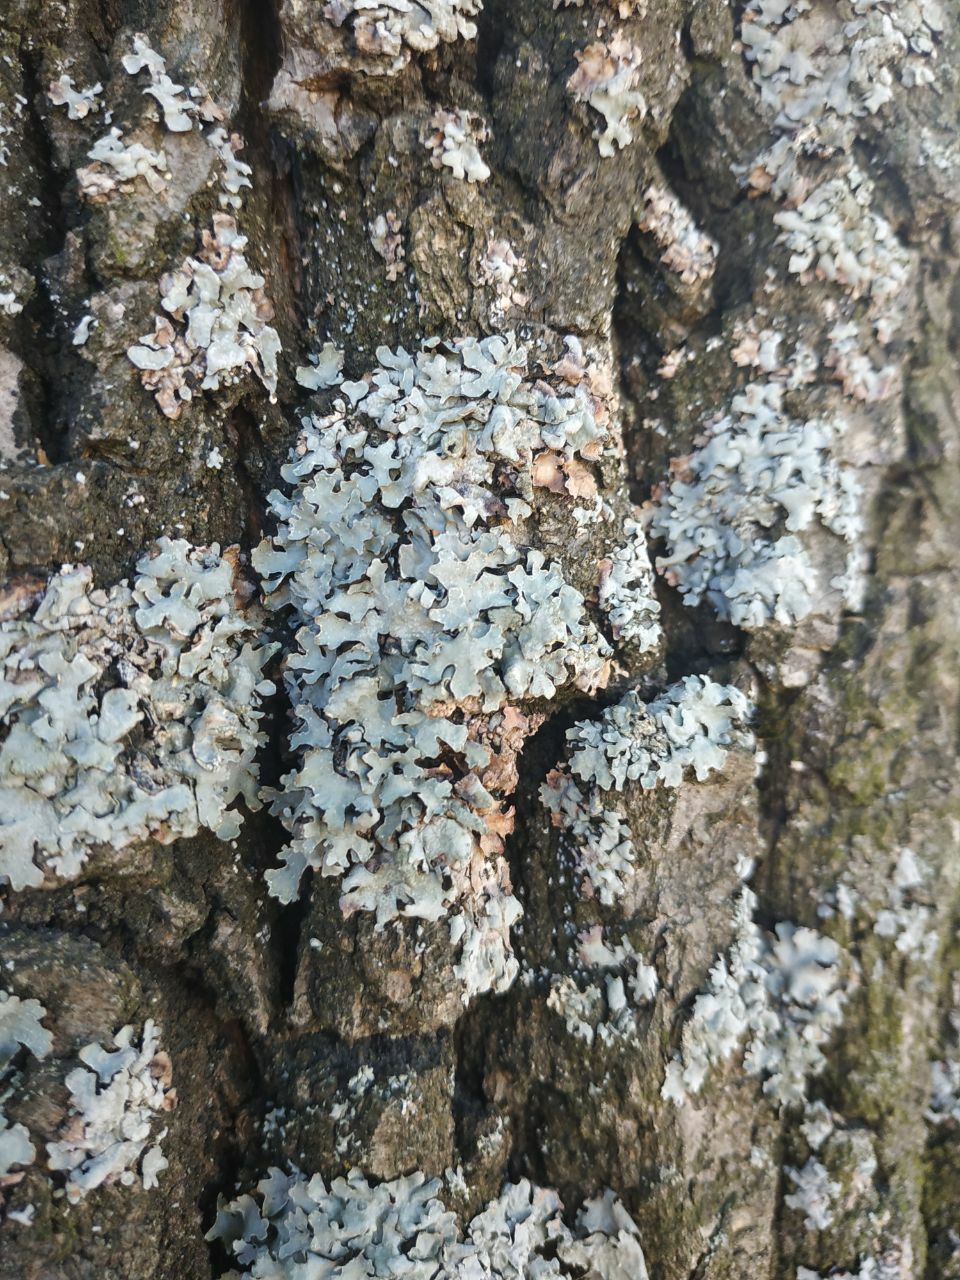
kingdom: Fungi
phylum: Ascomycota
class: Lecanoromycetes
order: Lecanorales
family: Parmeliaceae
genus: Parmelia
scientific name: Parmelia sulcata
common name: Netted shield lichen
